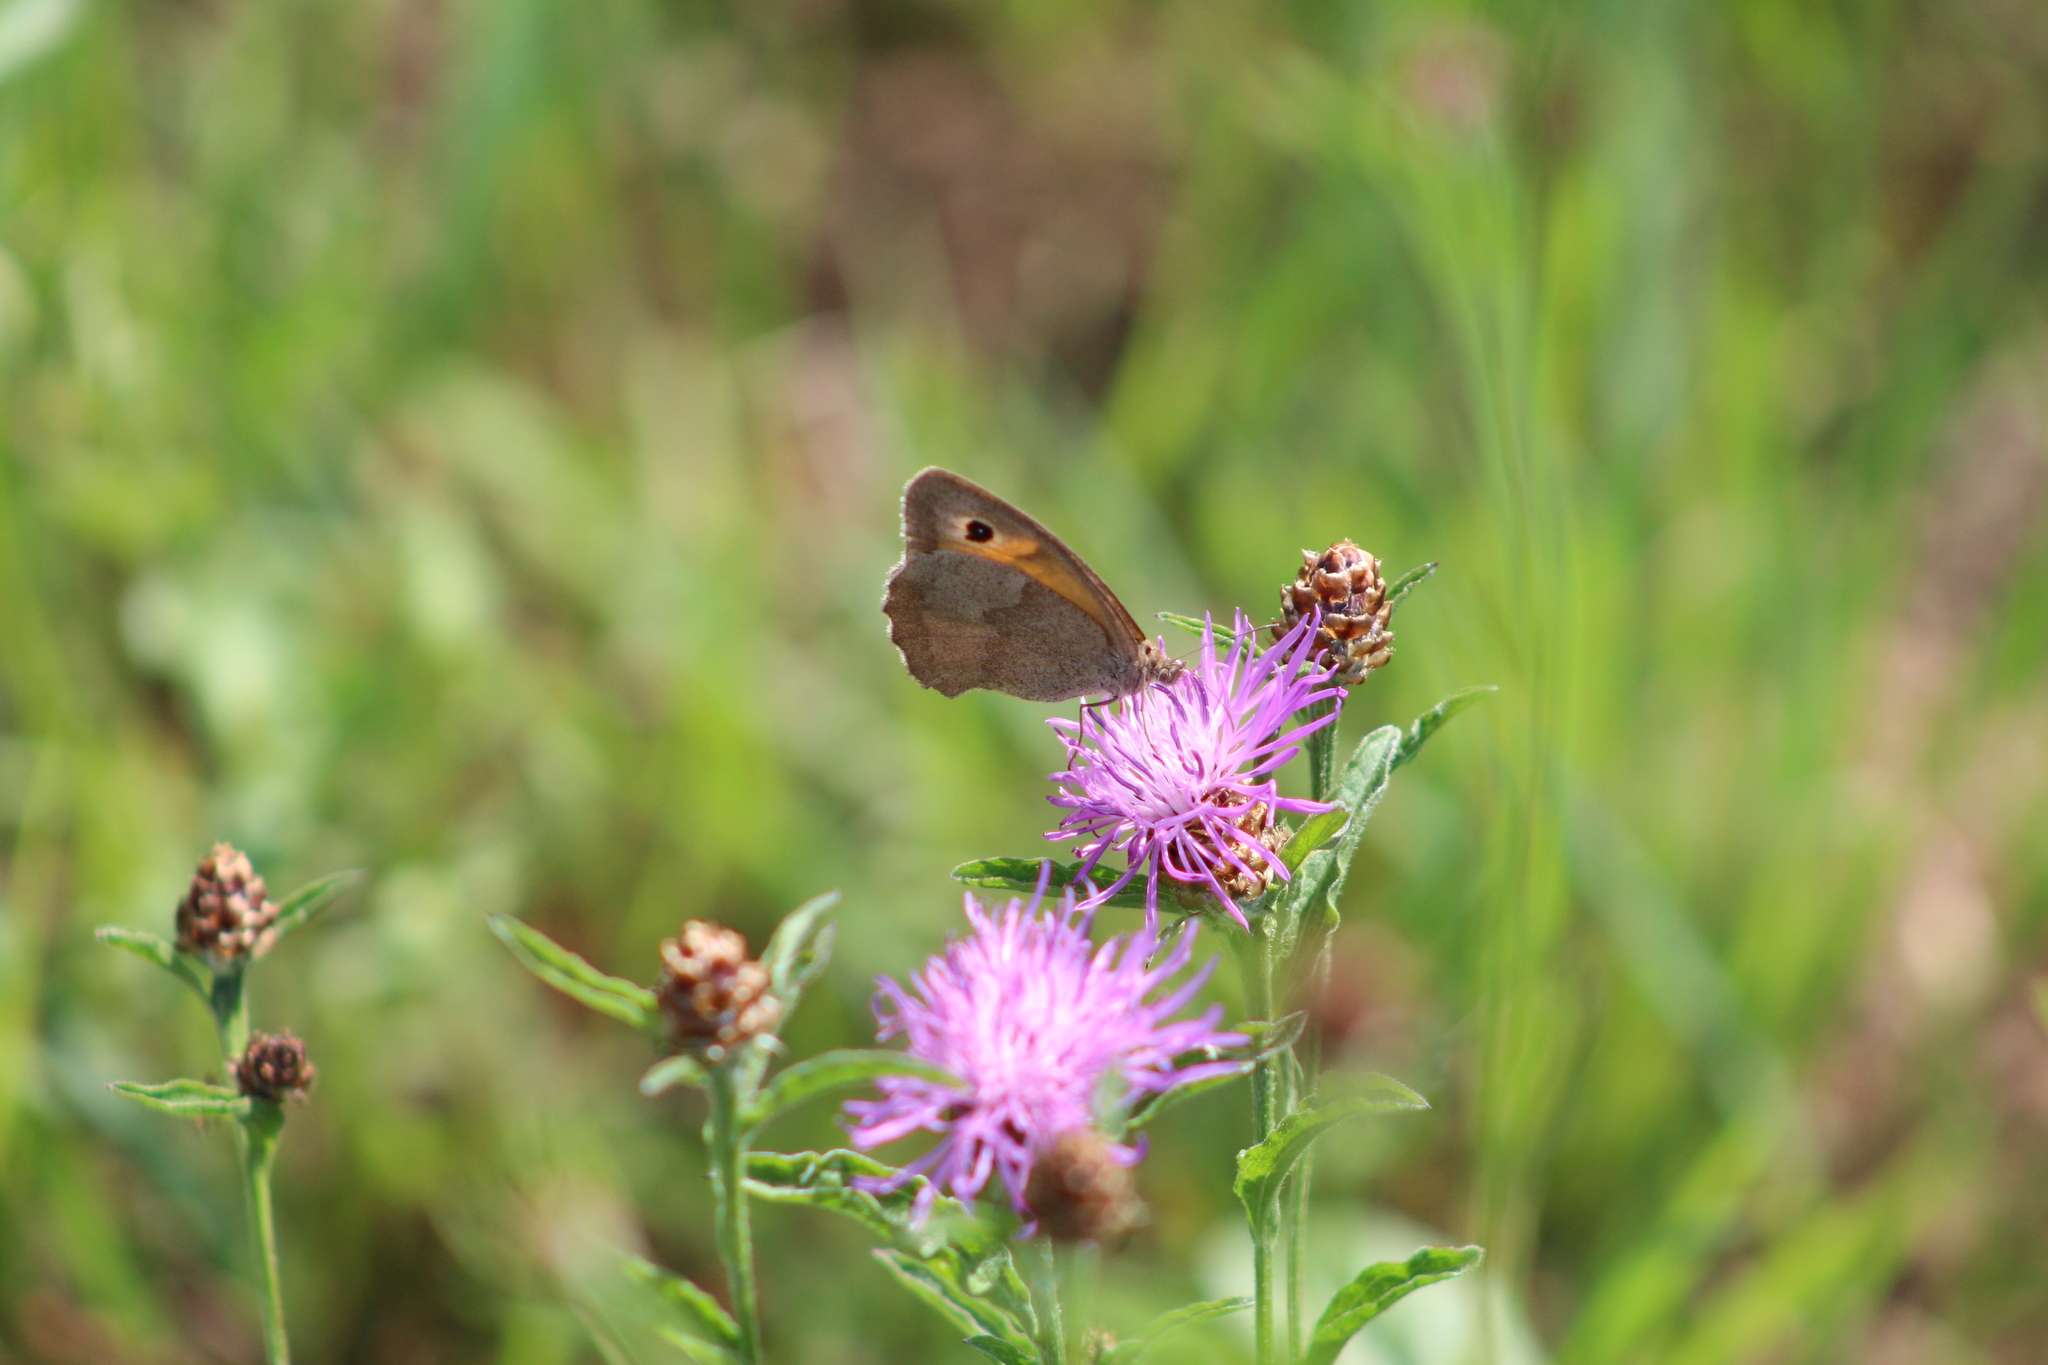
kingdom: Animalia
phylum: Arthropoda
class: Insecta
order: Lepidoptera
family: Nymphalidae
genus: Maniola
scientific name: Maniola jurtina
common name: Meadow brown
